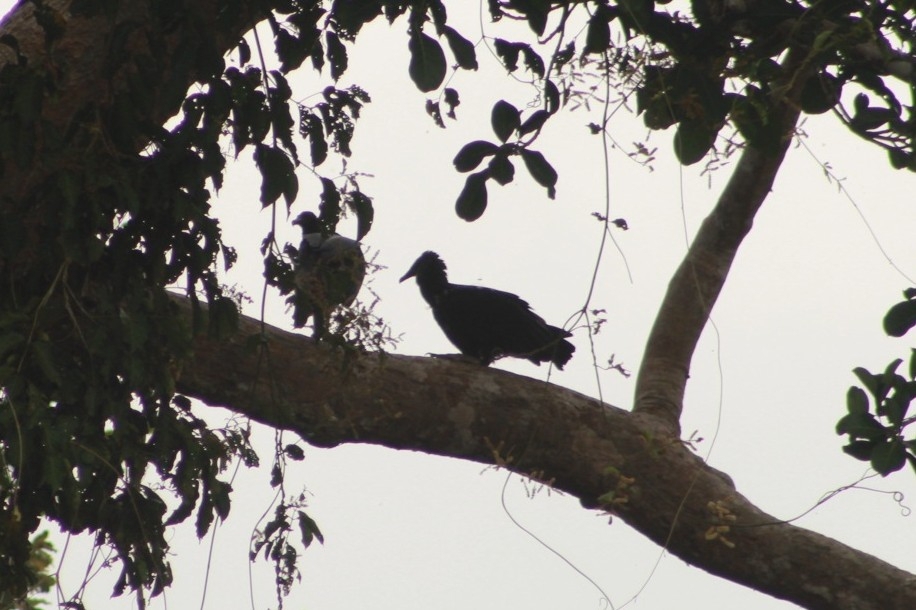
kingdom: Animalia
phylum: Chordata
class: Aves
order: Accipitriformes
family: Cathartidae
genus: Coragyps
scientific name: Coragyps atratus
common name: Black vulture
